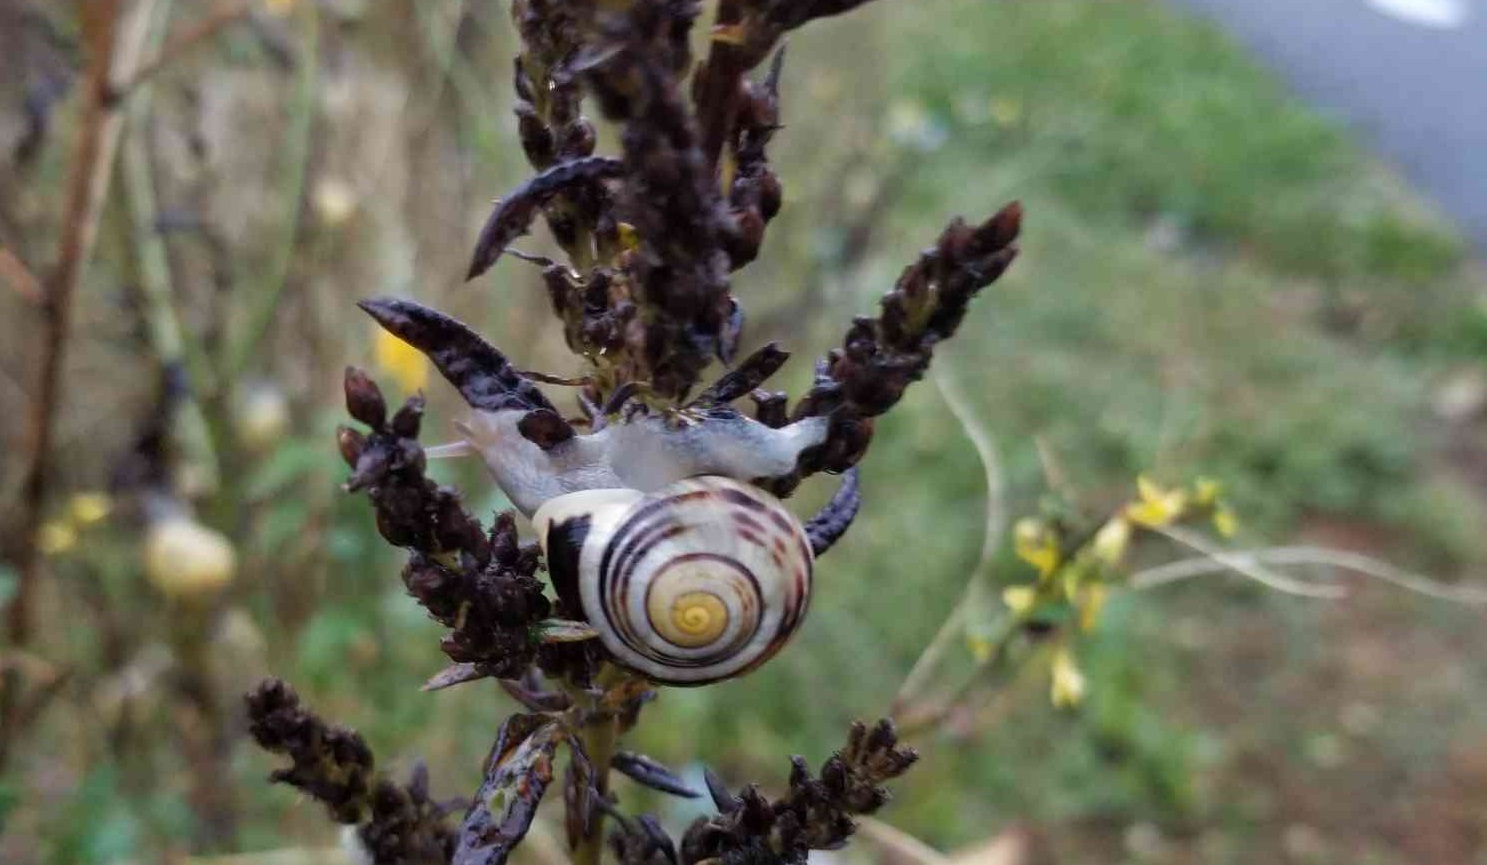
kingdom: Animalia
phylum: Mollusca
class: Gastropoda
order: Stylommatophora
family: Helicidae
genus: Cepaea
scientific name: Cepaea hortensis
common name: White-lip gardensnail
